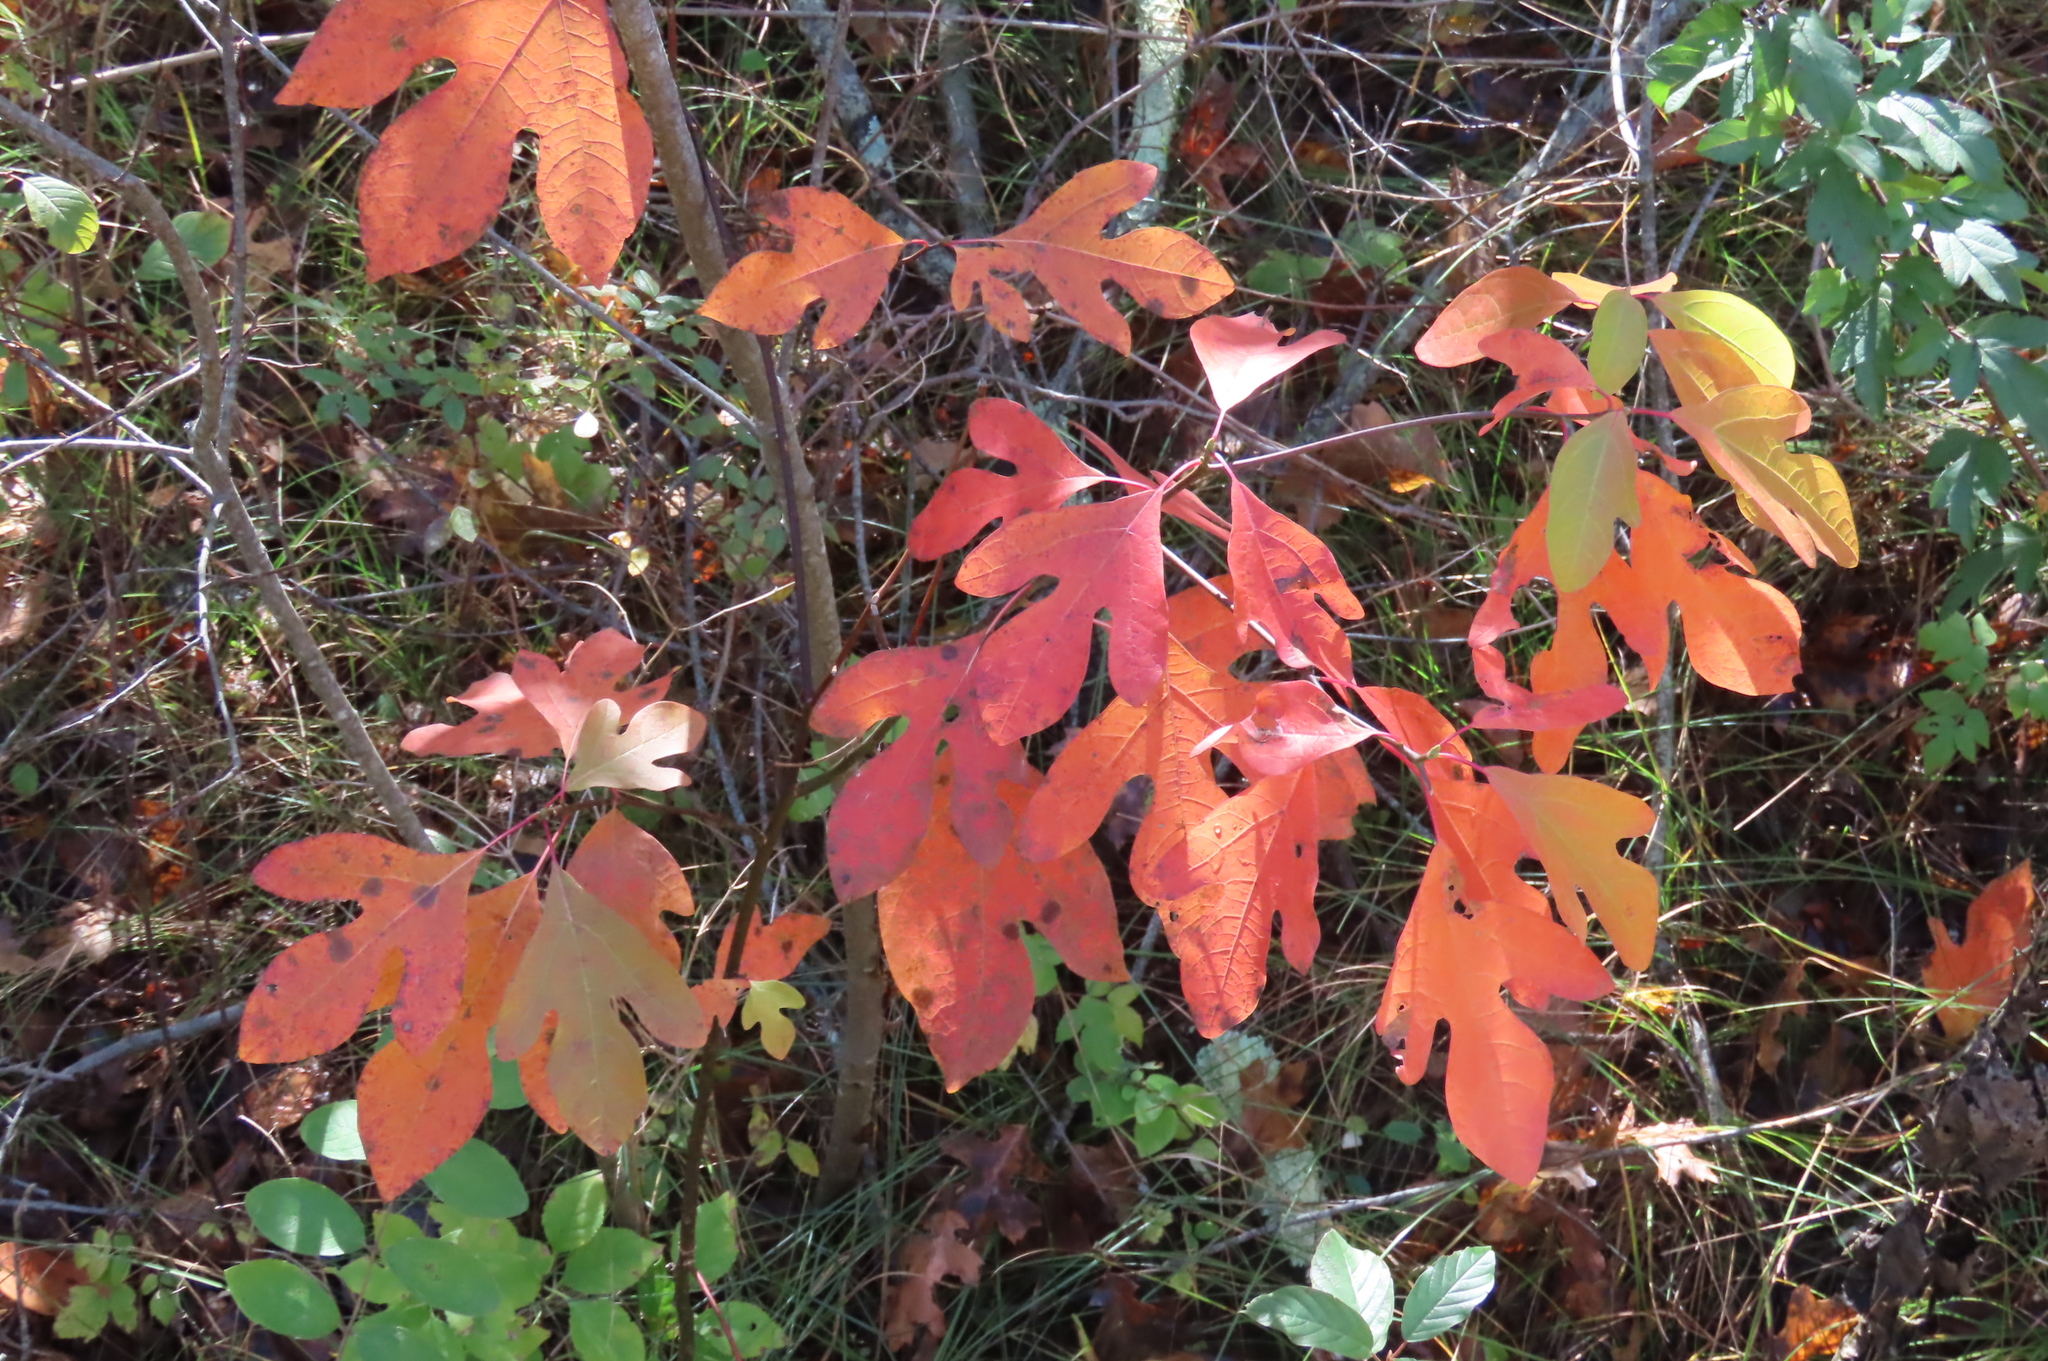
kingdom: Plantae
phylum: Tracheophyta
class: Magnoliopsida
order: Laurales
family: Lauraceae
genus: Sassafras
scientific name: Sassafras albidum
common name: Sassafras
